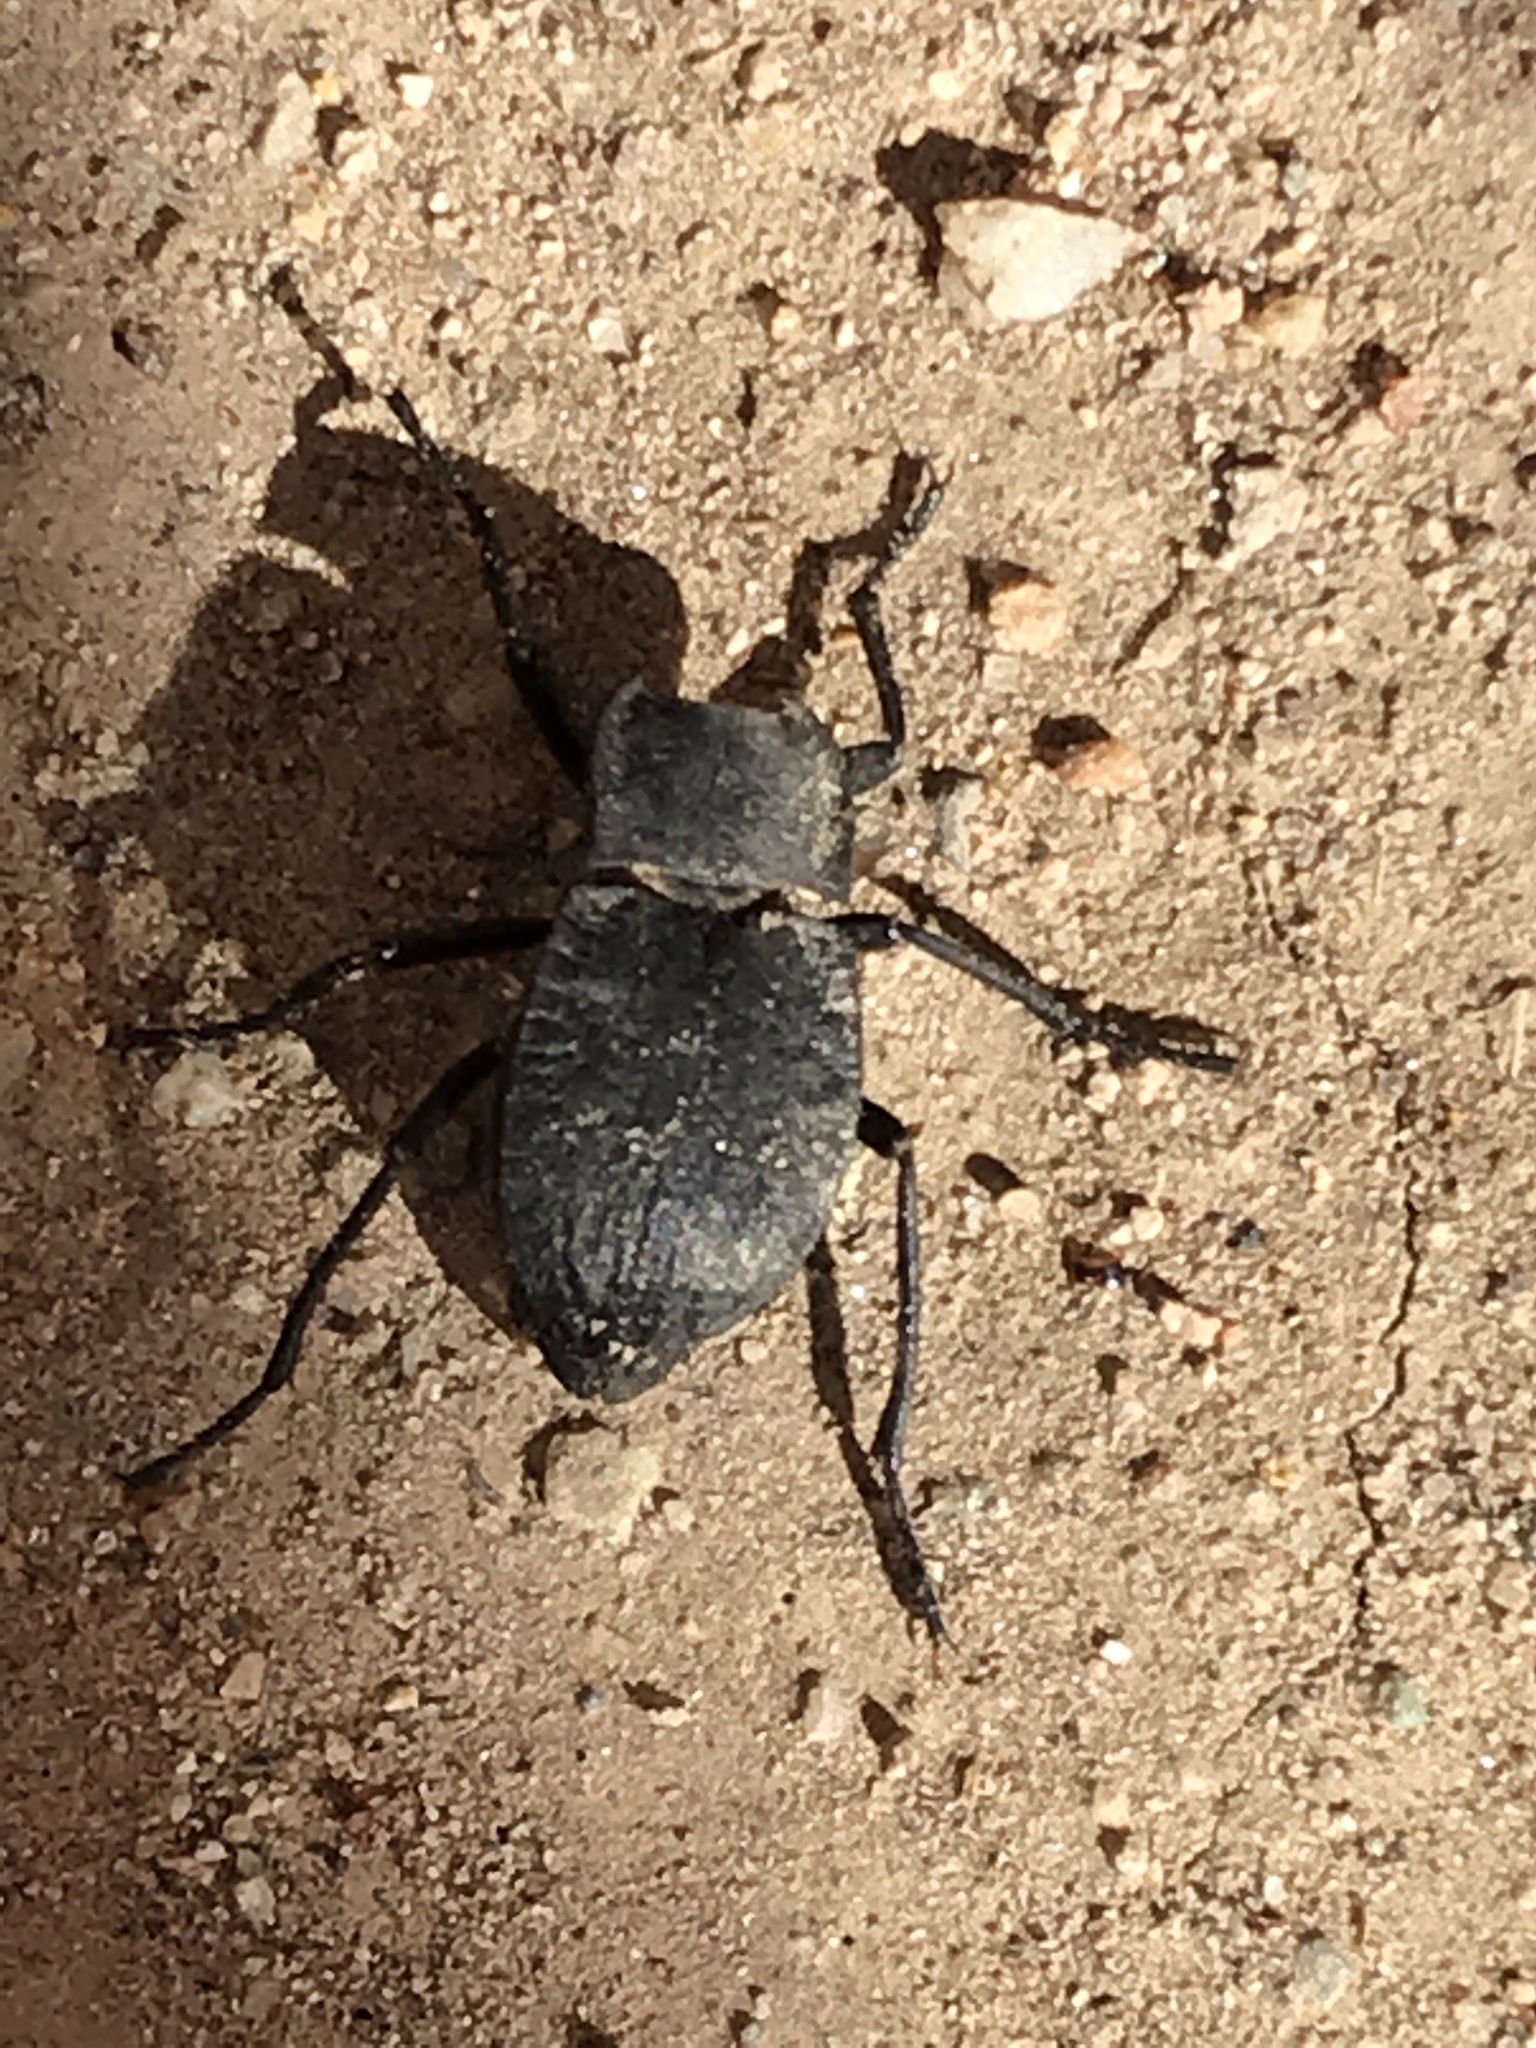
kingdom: Animalia
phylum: Arthropoda
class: Insecta
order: Coleoptera
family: Tenebrionidae
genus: Stenomorpha
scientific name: Stenomorpha opaca
